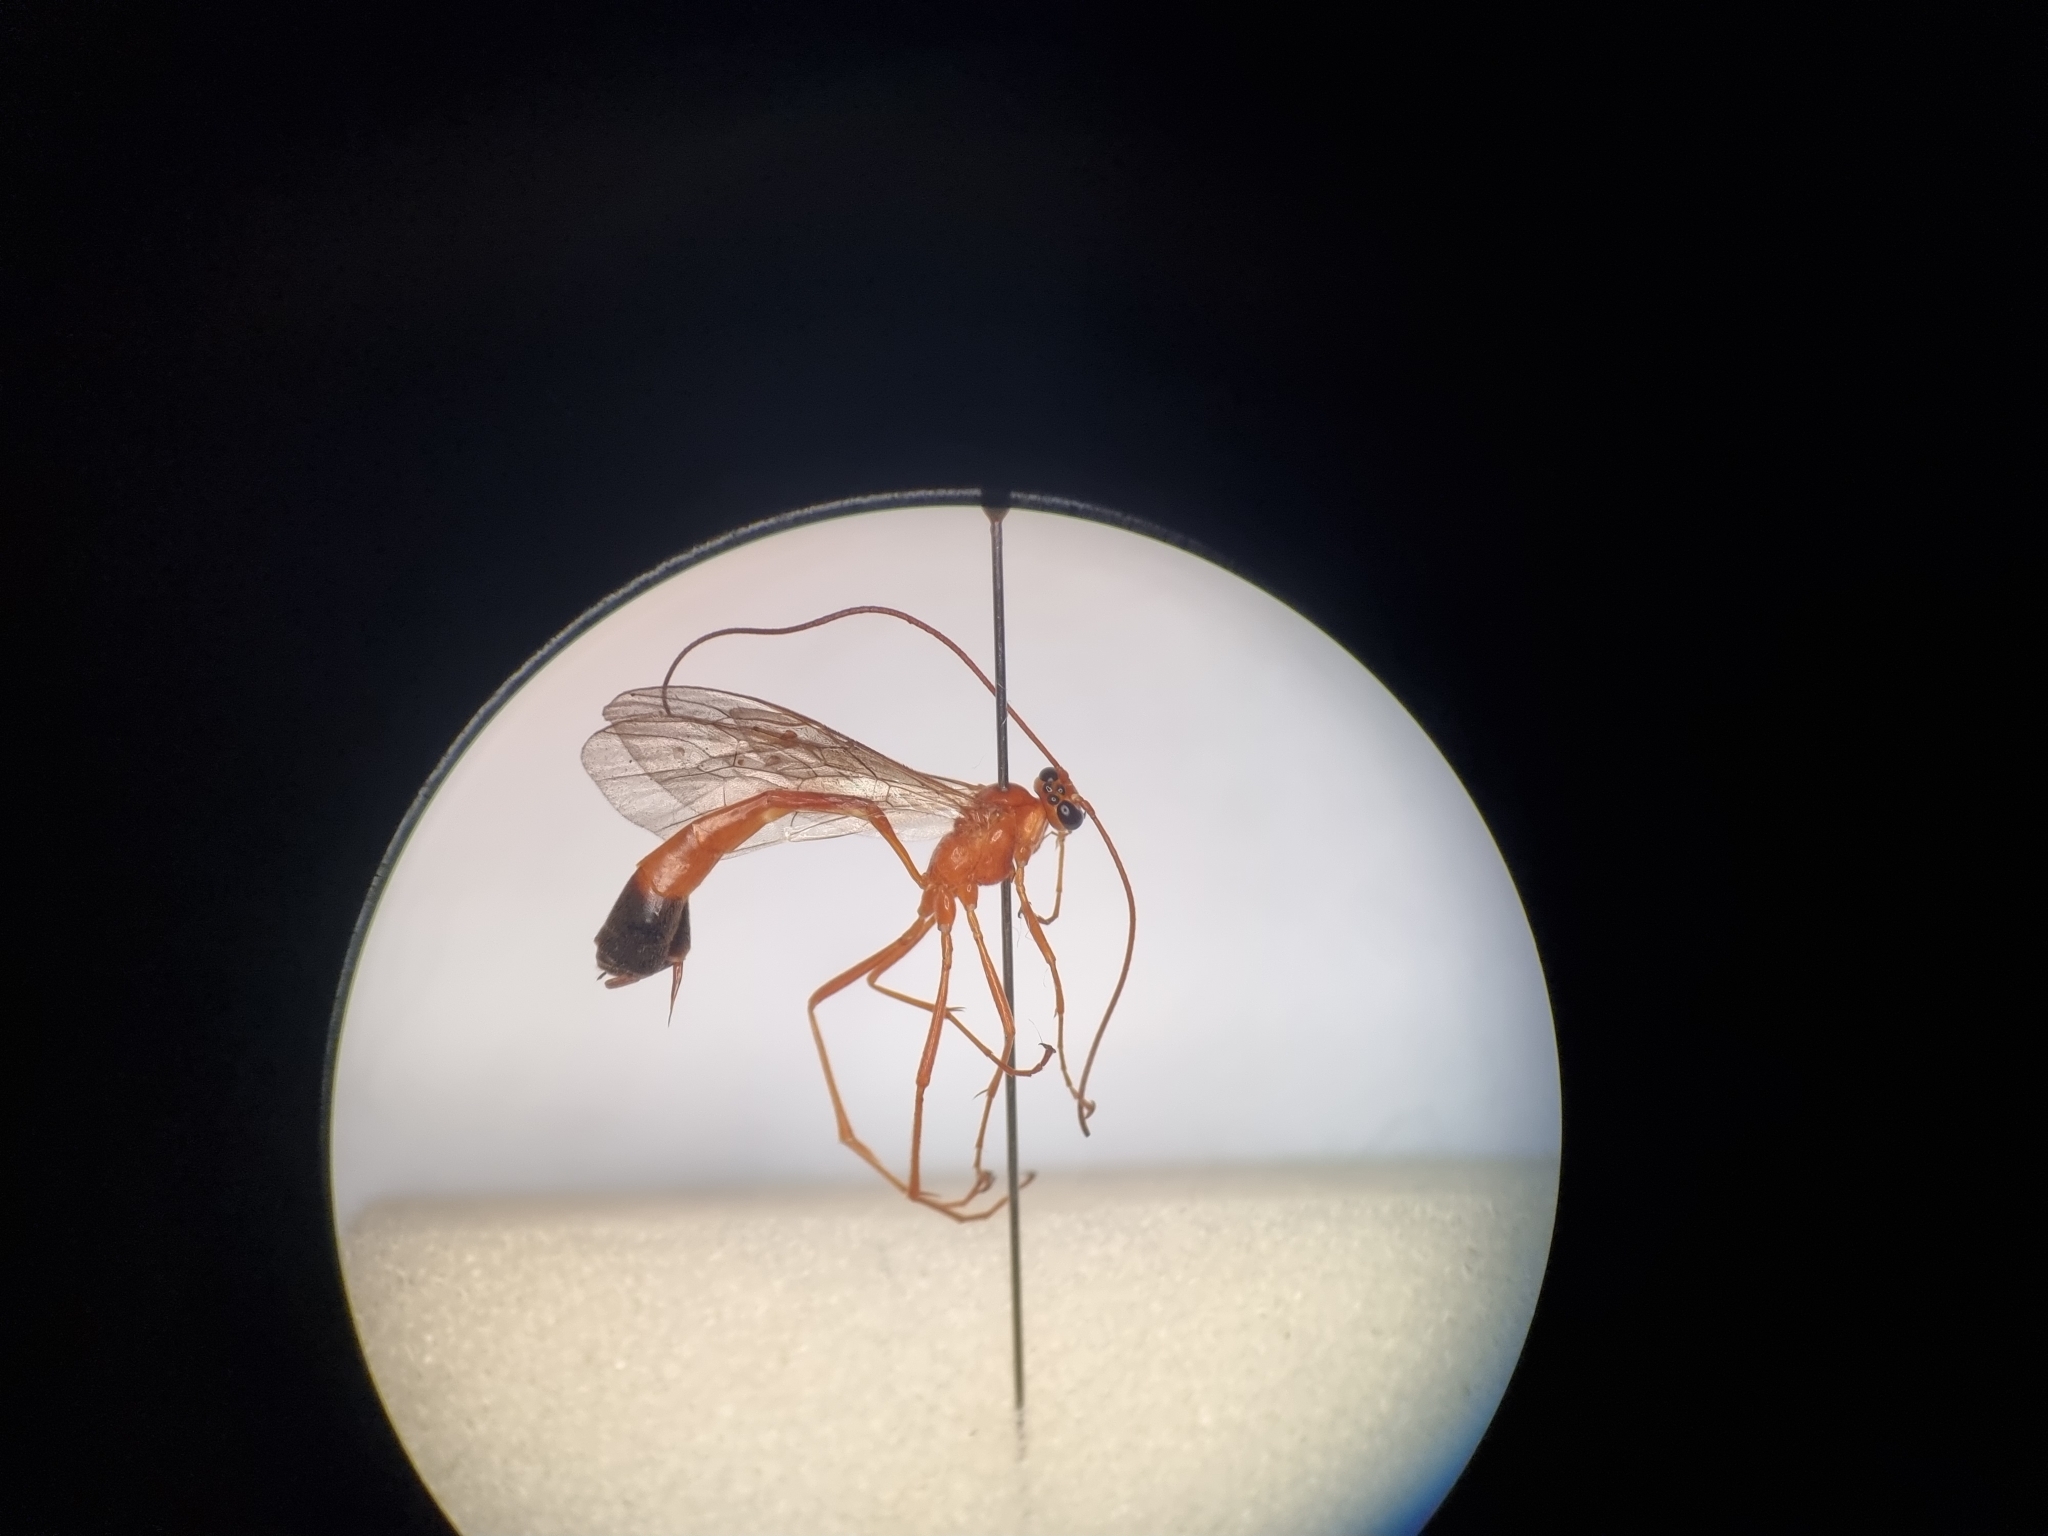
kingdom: Animalia
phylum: Arthropoda
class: Insecta
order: Hymenoptera
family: Ichneumonidae
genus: Enicospilus
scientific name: Enicospilus ramidulus
